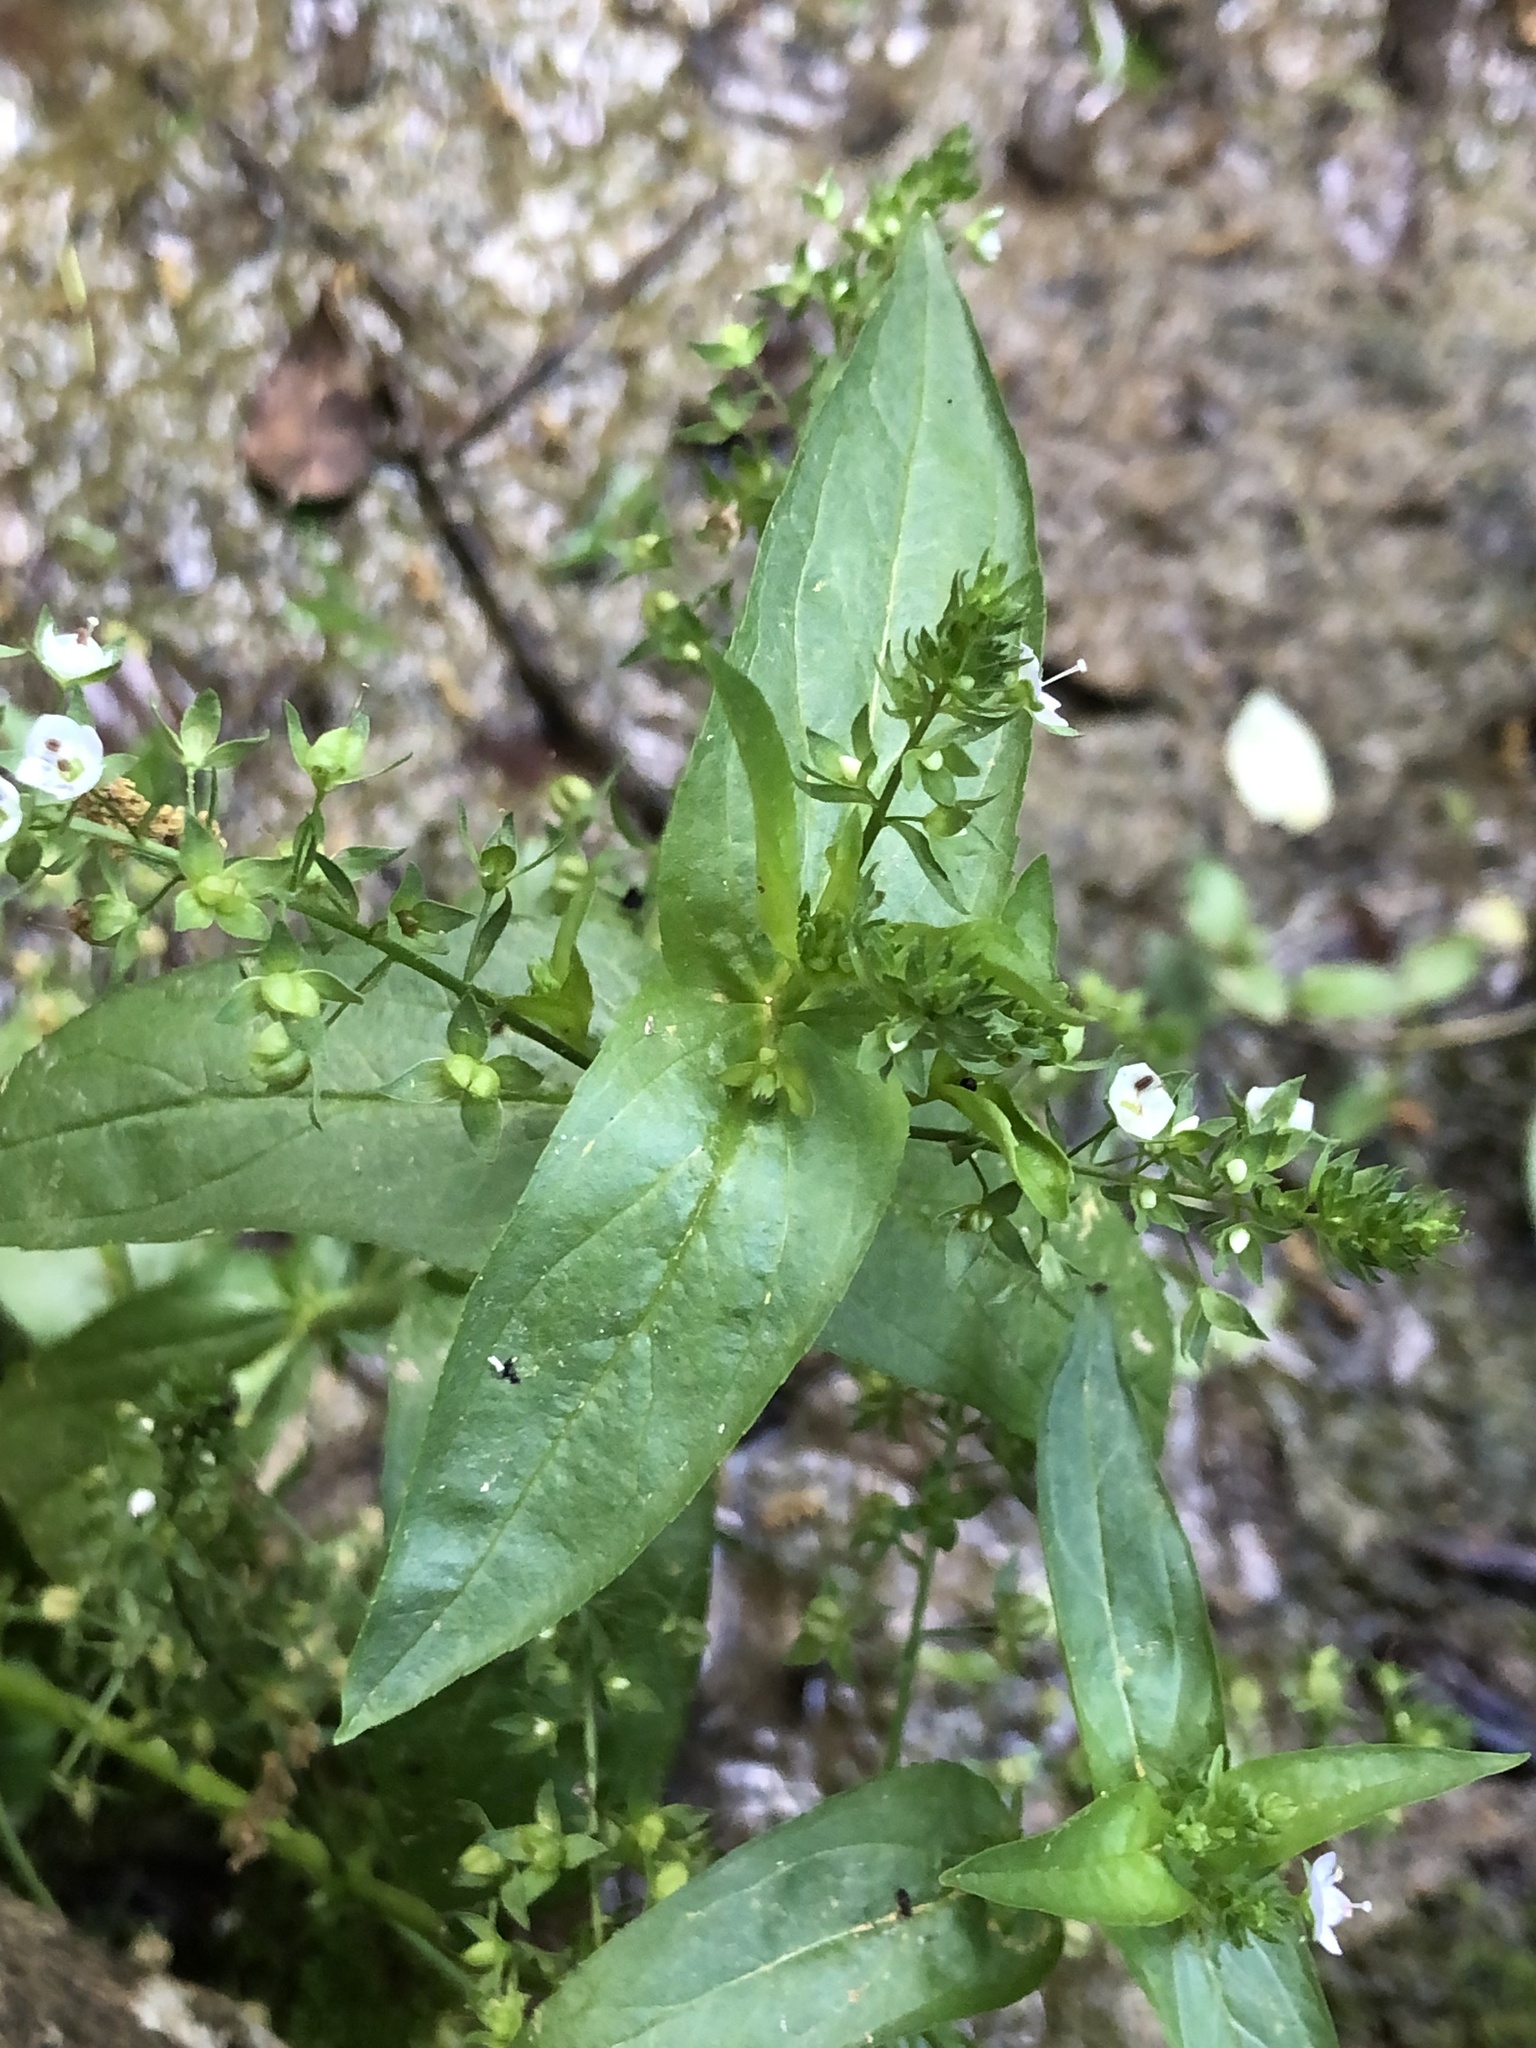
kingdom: Plantae
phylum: Tracheophyta
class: Magnoliopsida
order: Lamiales
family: Plantaginaceae
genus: Veronica
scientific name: Veronica anagallis-aquatica
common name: Water speedwell
